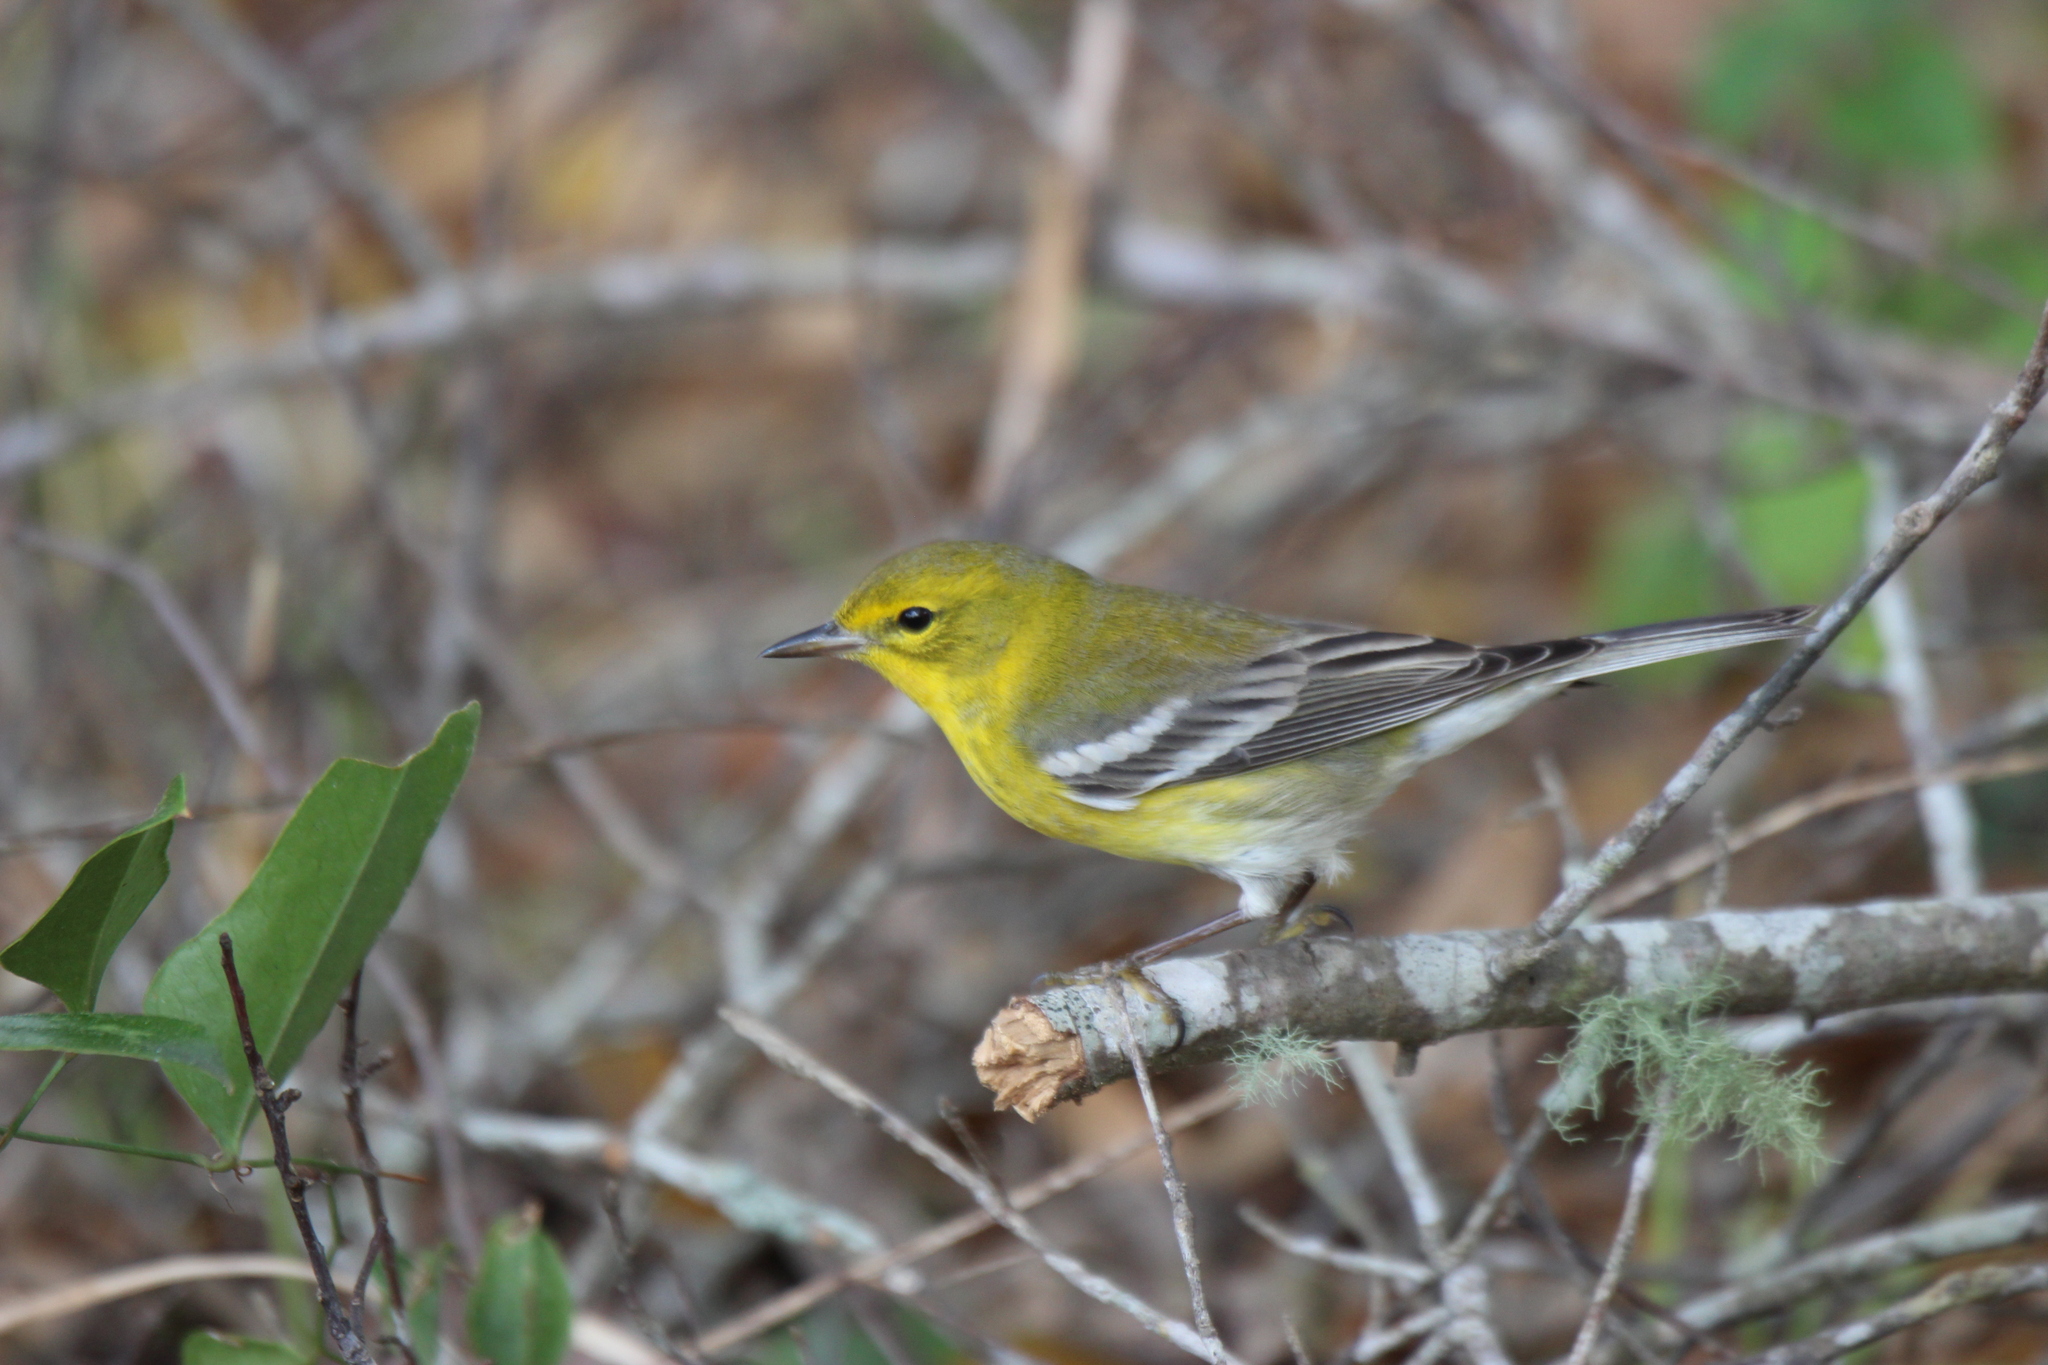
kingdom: Animalia
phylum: Chordata
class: Aves
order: Passeriformes
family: Parulidae
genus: Setophaga
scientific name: Setophaga pinus
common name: Pine warbler
